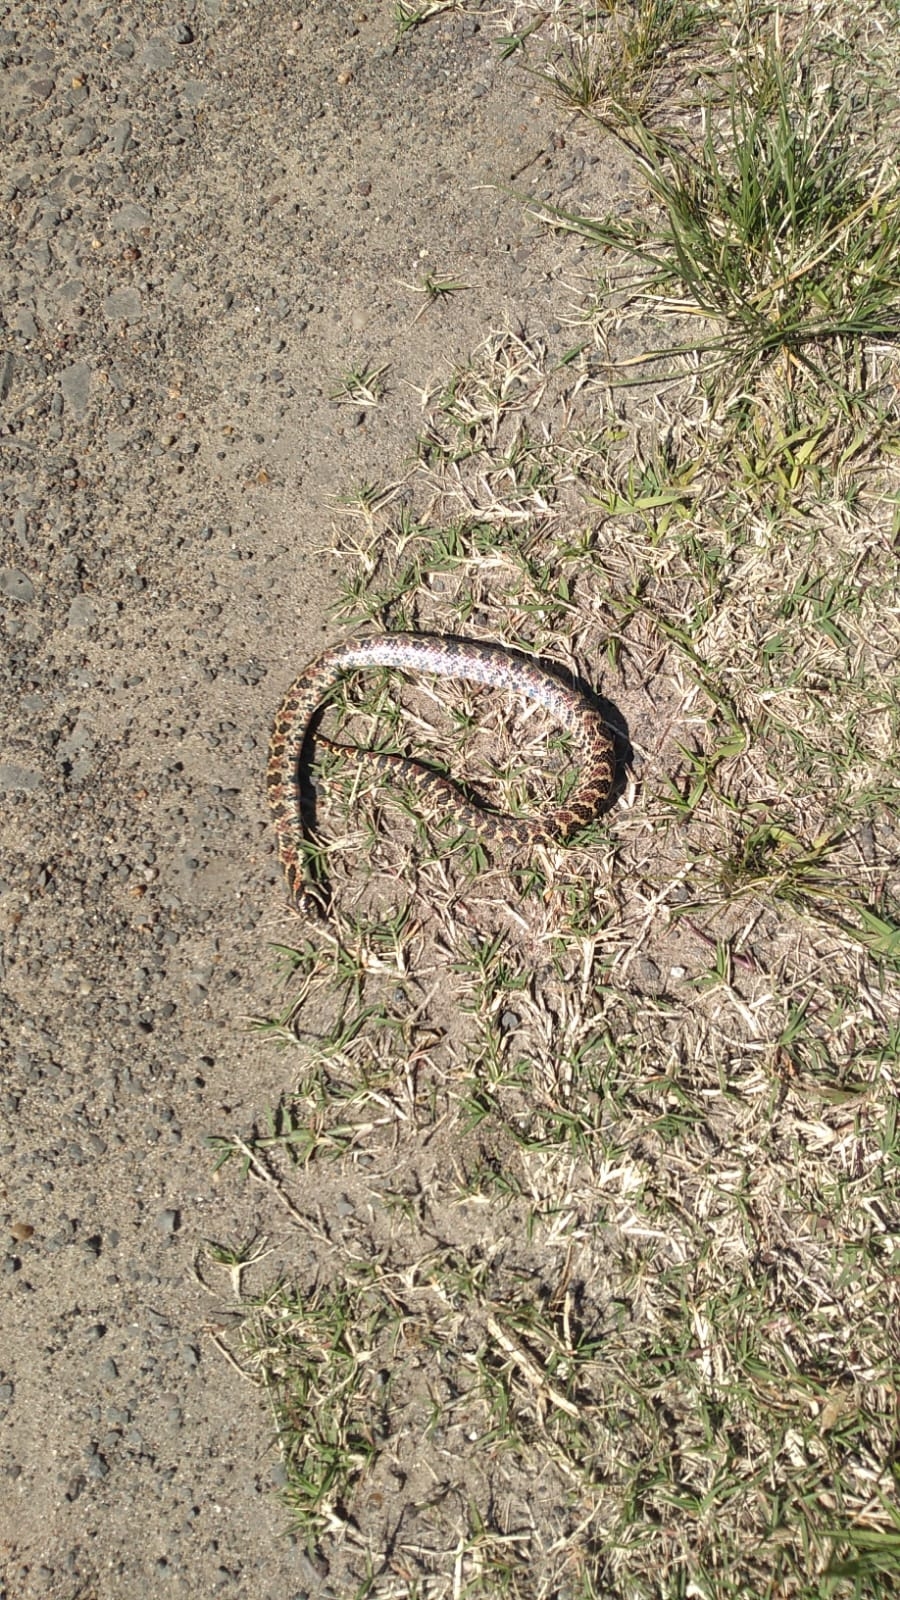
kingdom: Animalia
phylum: Chordata
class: Squamata
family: Colubridae
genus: Xenodon
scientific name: Xenodon dorbignyi
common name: South american hognose snake
